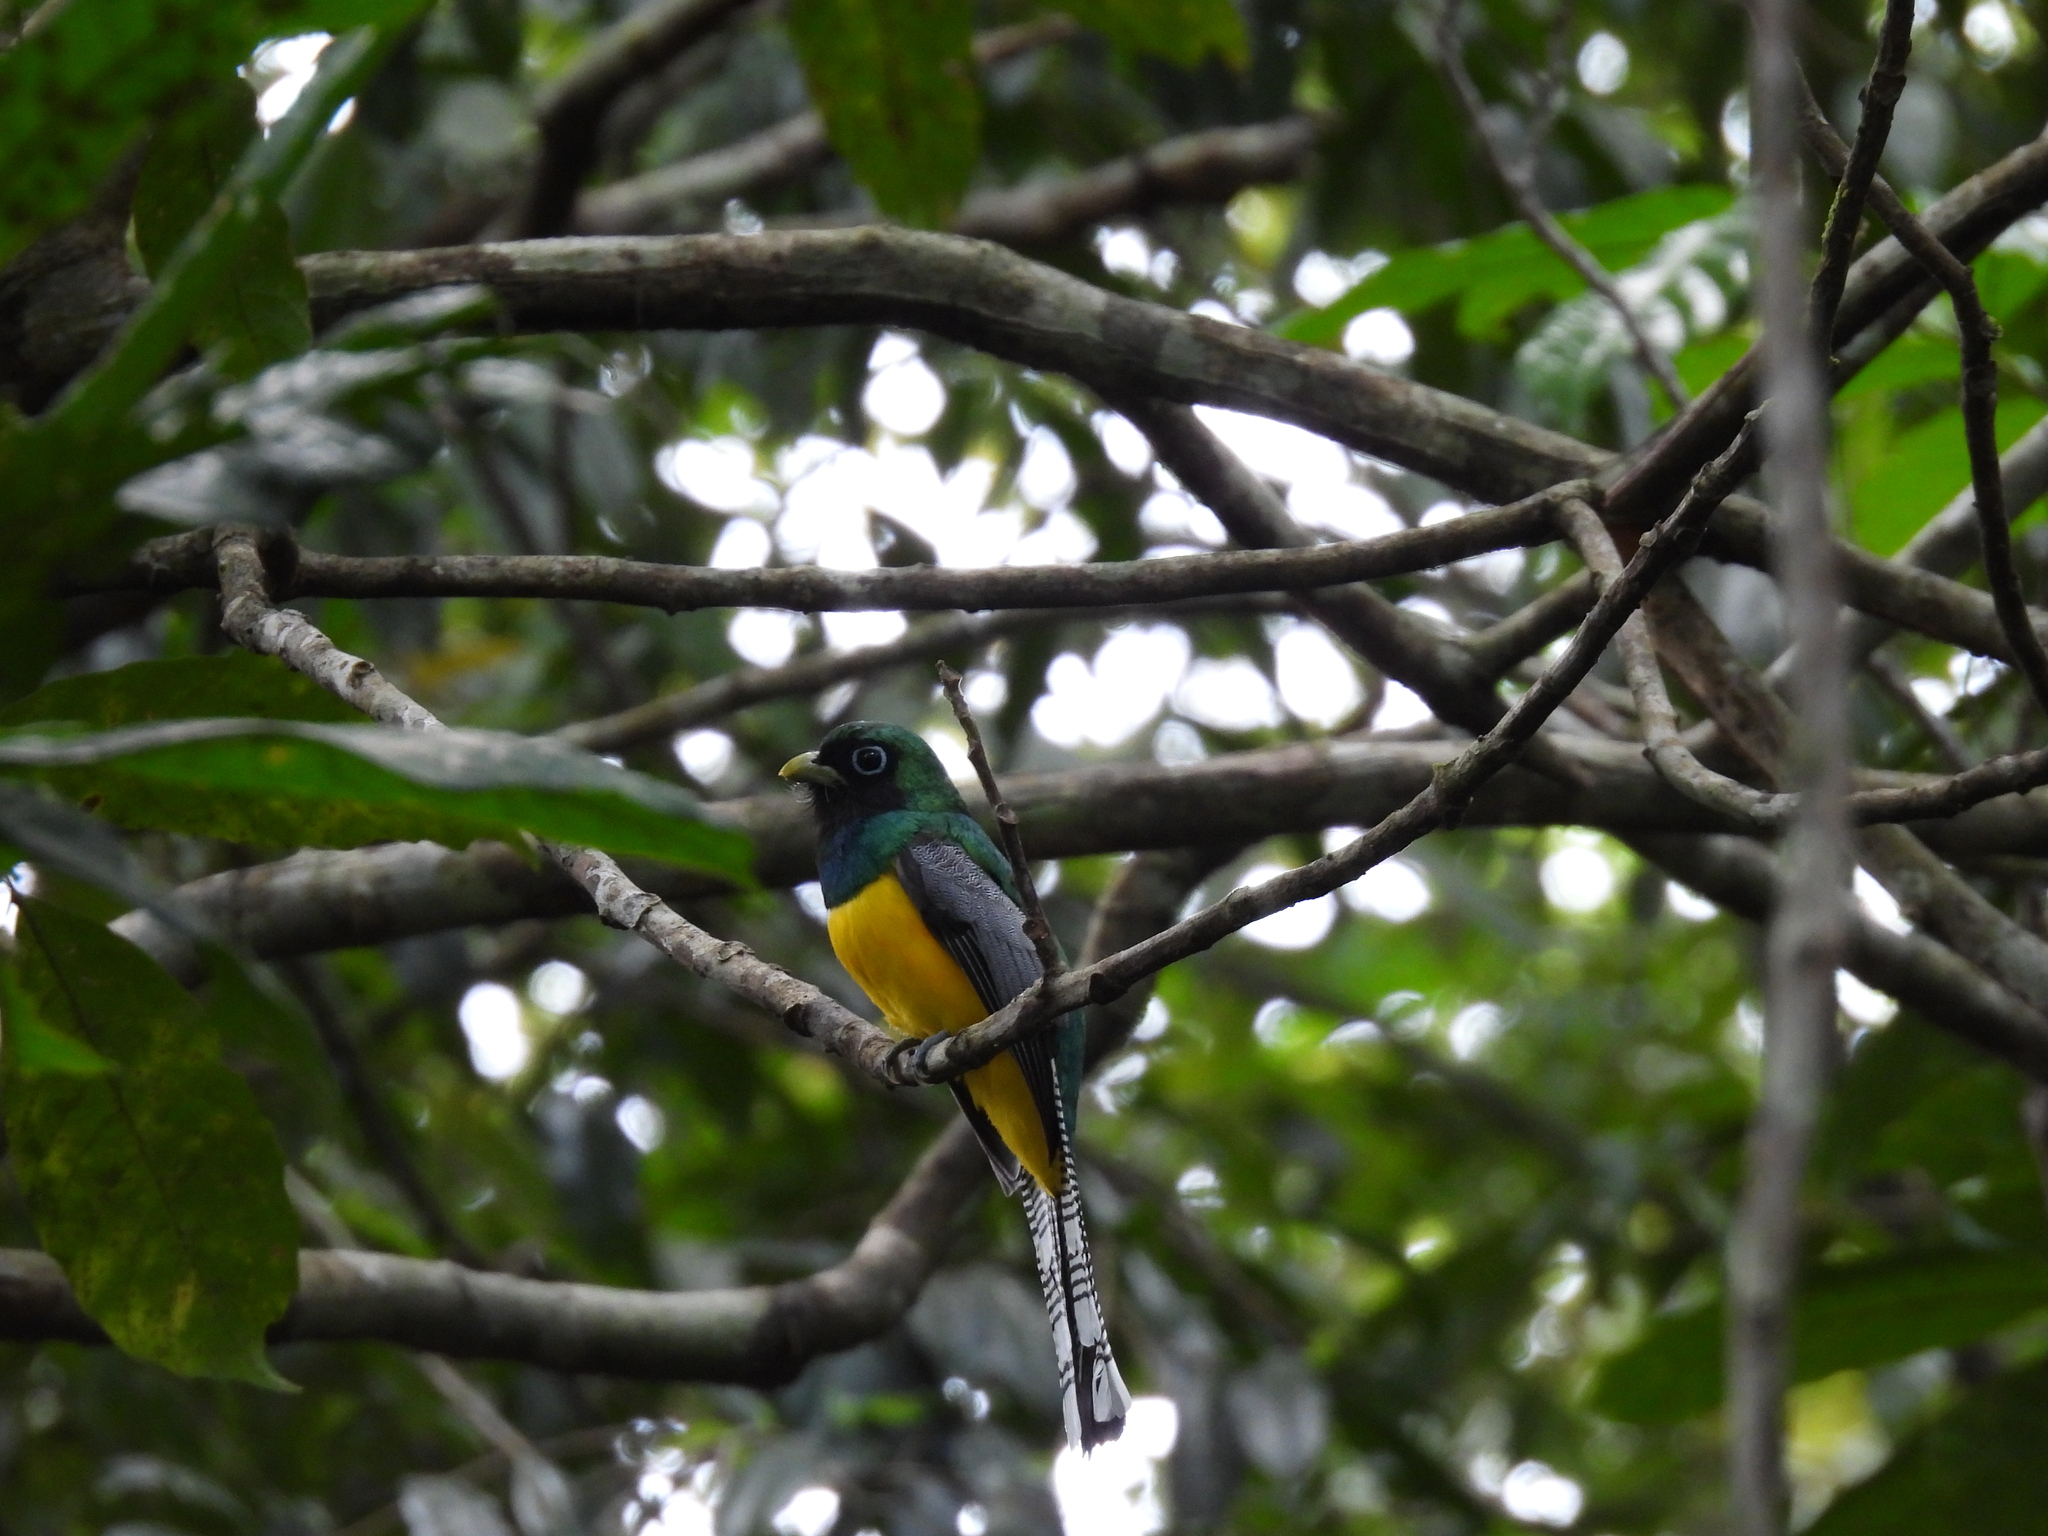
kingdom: Animalia
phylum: Chordata
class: Aves
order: Trogoniformes
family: Trogonidae
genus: Trogon
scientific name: Trogon rufus
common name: Black-throated trogon
